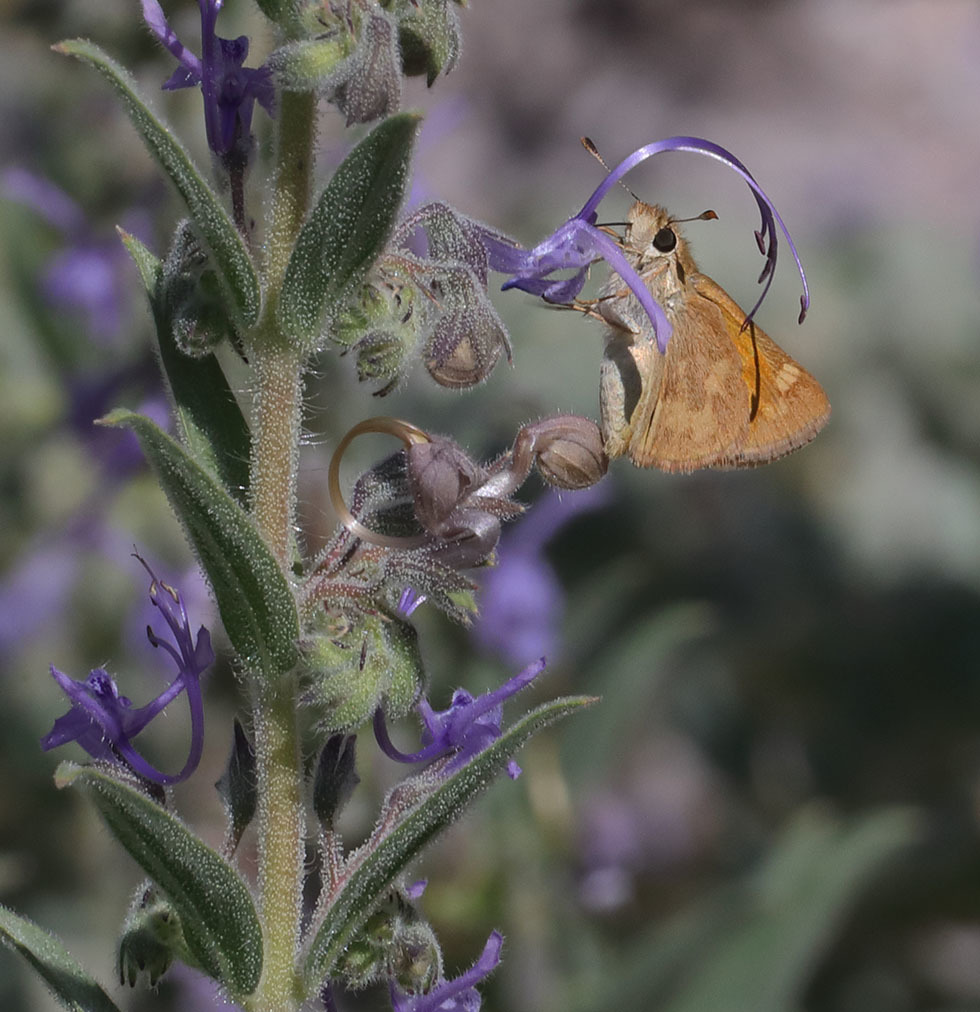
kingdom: Animalia
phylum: Arthropoda
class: Insecta
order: Lepidoptera
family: Hesperiidae
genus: Ochlodes
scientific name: Ochlodes sylvanoides
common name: Woodland skipper
